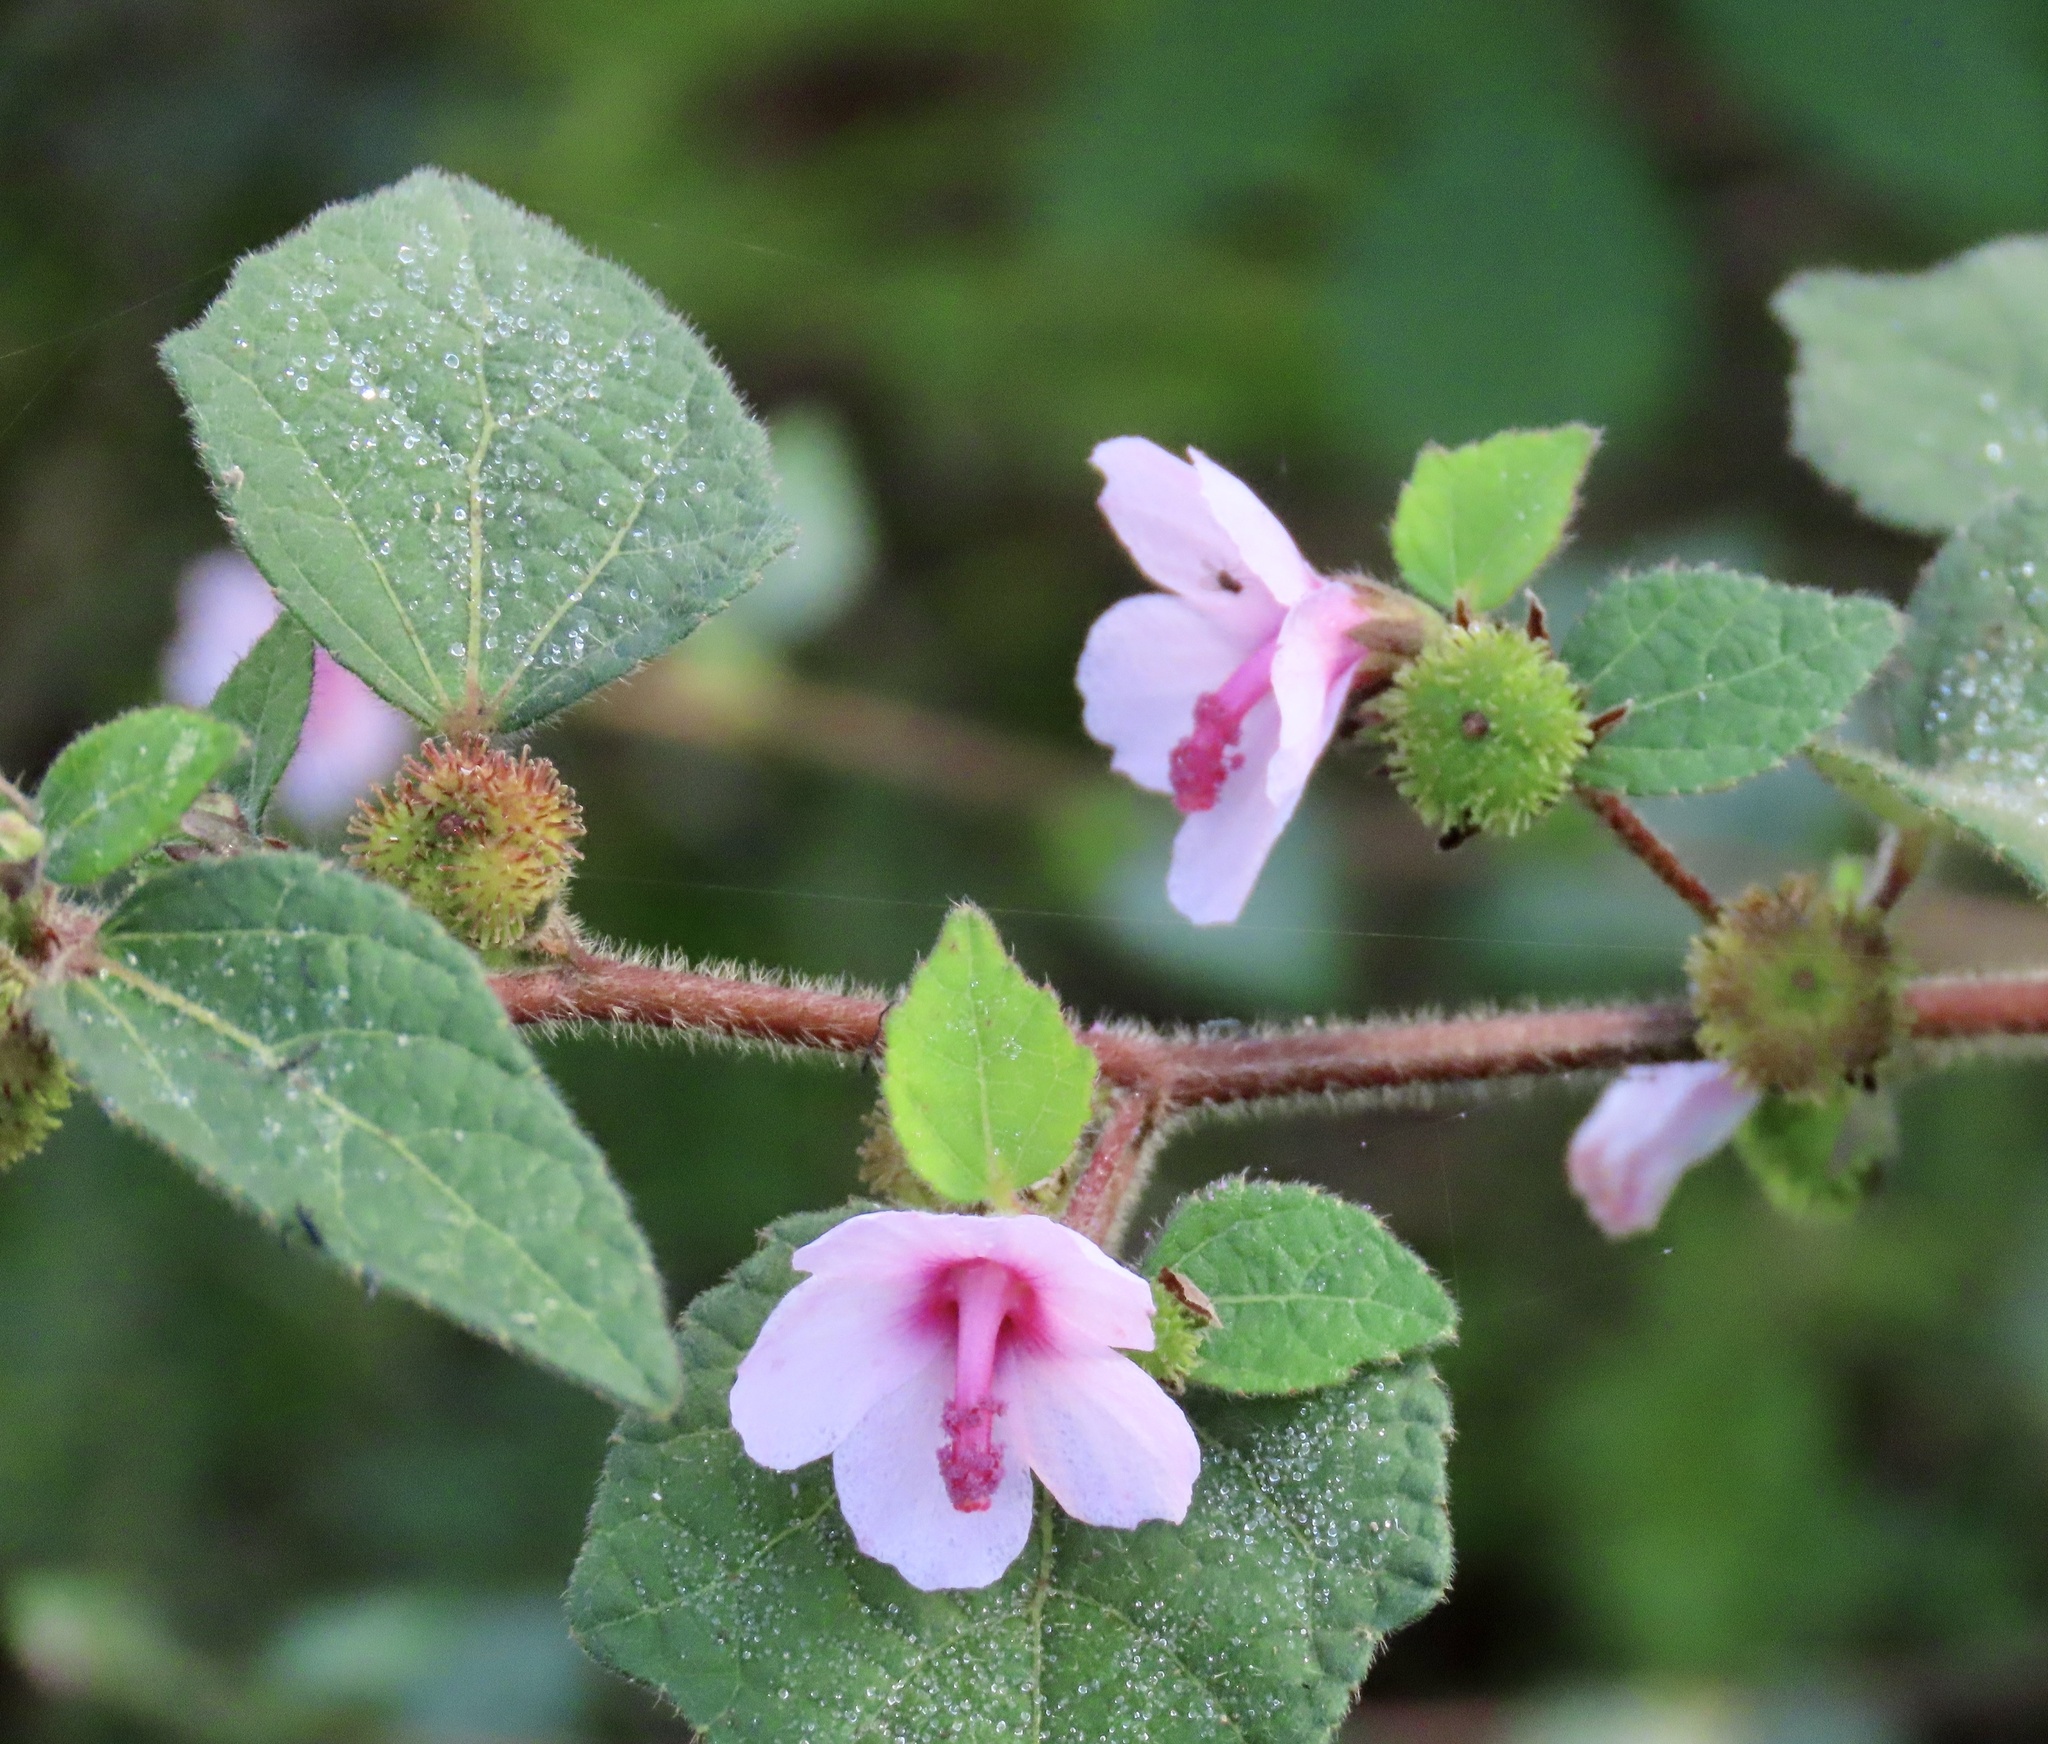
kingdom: Plantae
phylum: Tracheophyta
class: Magnoliopsida
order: Malvales
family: Malvaceae
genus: Urena
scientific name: Urena lobata
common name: Caesarweed
